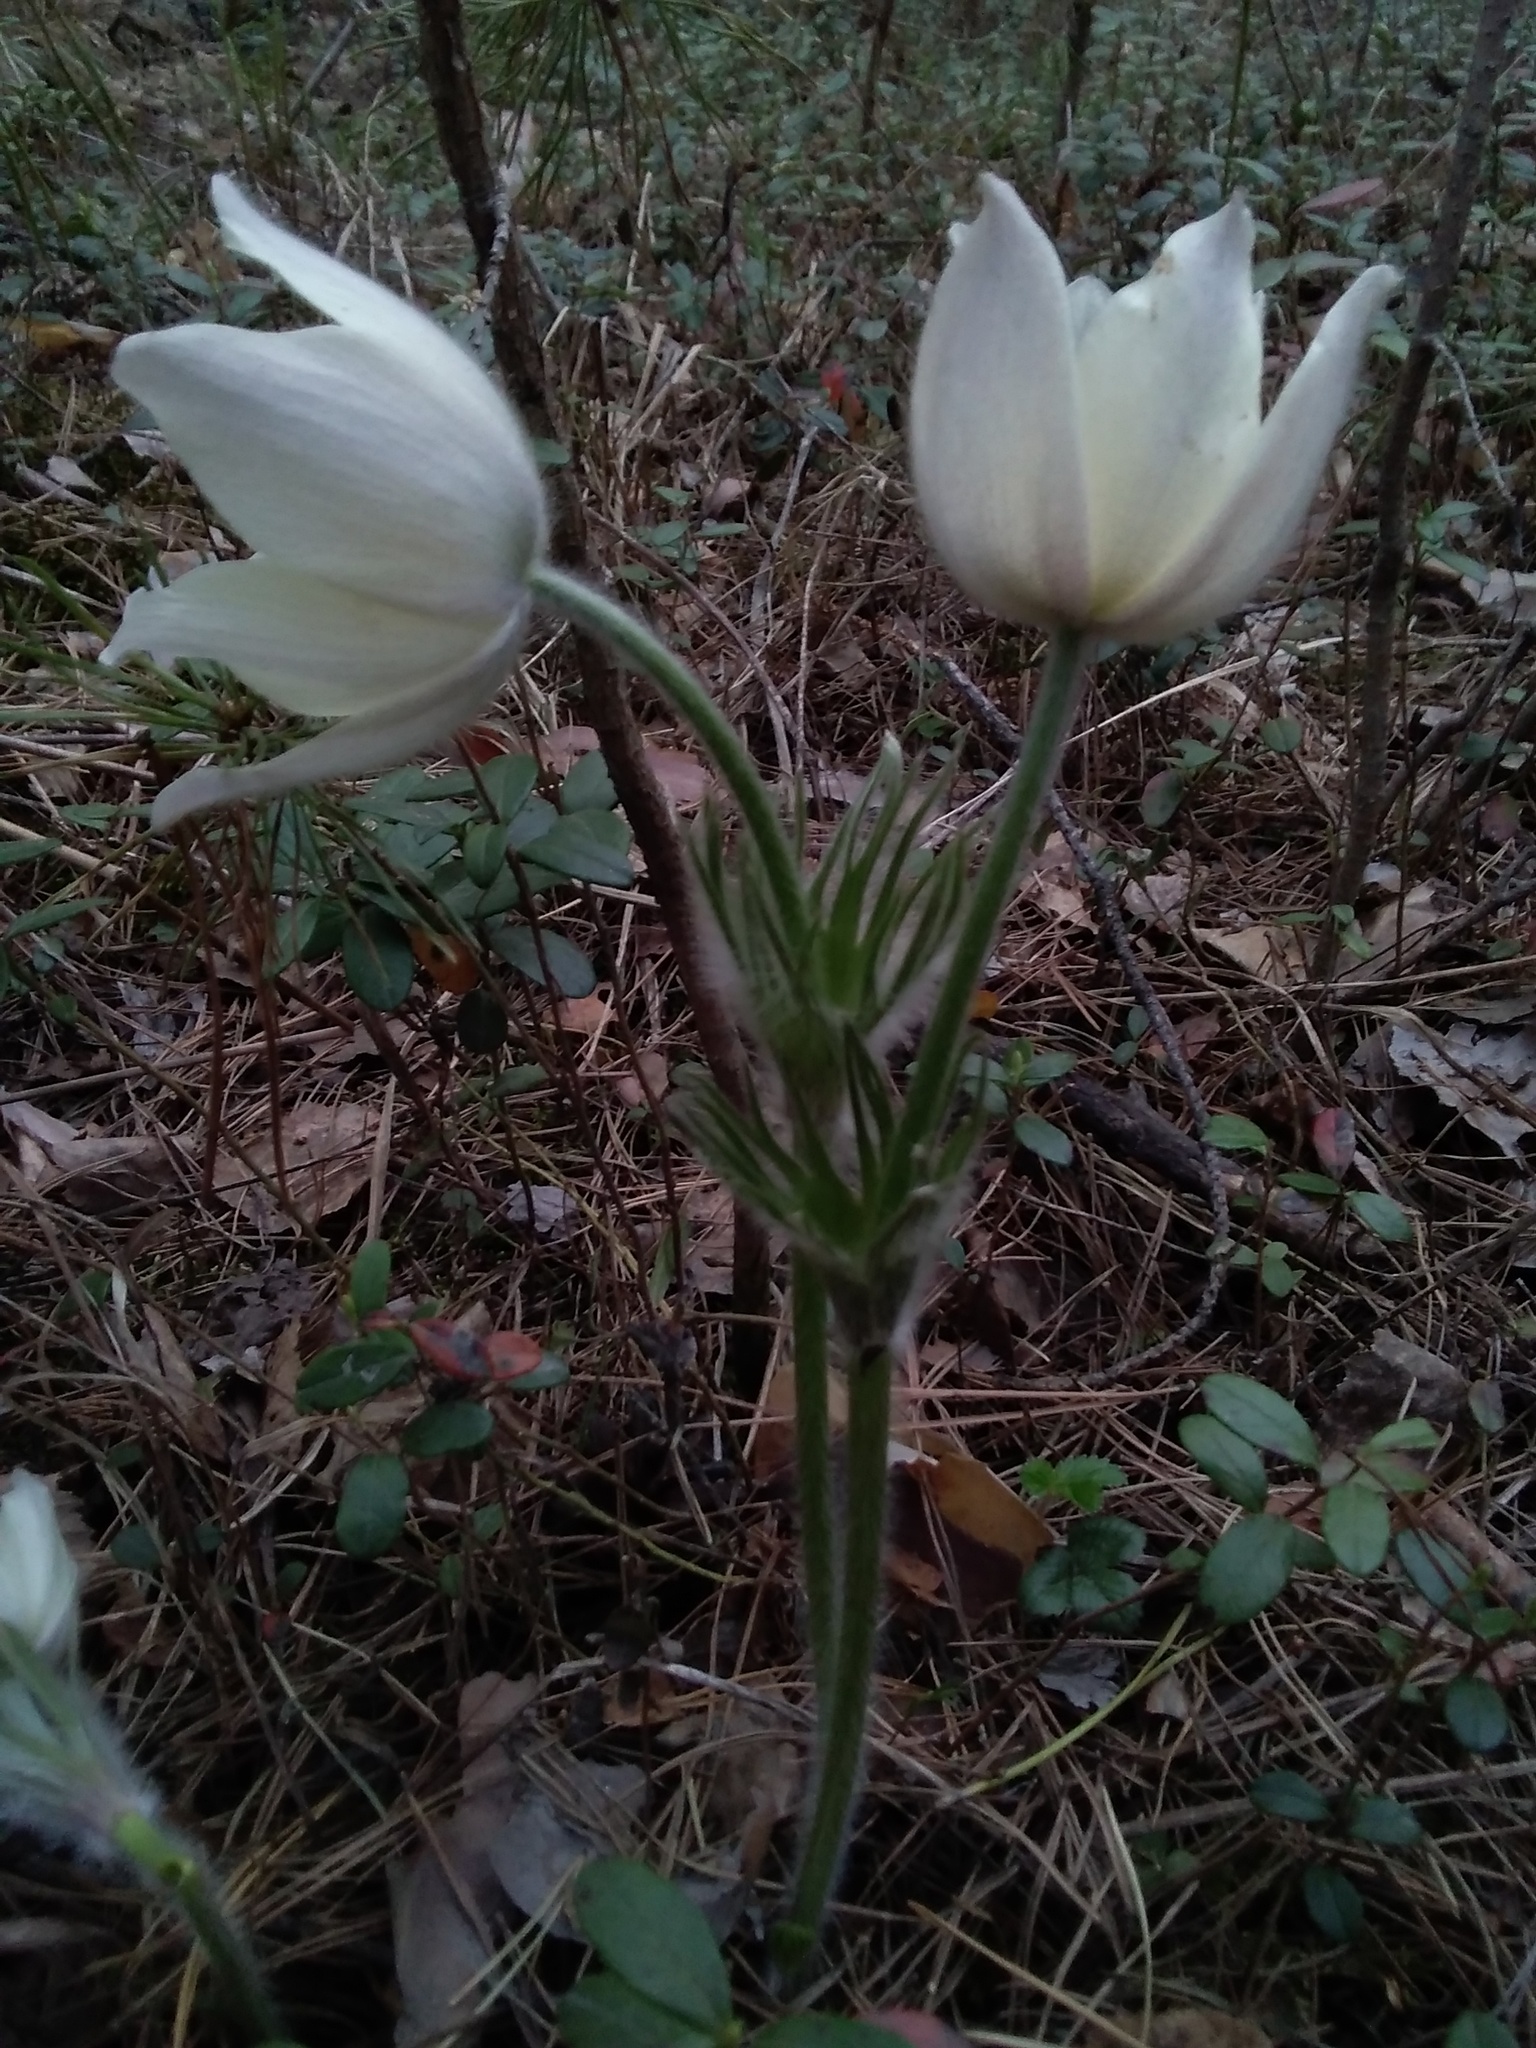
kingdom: Plantae
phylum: Tracheophyta
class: Magnoliopsida
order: Ranunculales
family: Ranunculaceae
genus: Pulsatilla
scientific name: Pulsatilla patens
